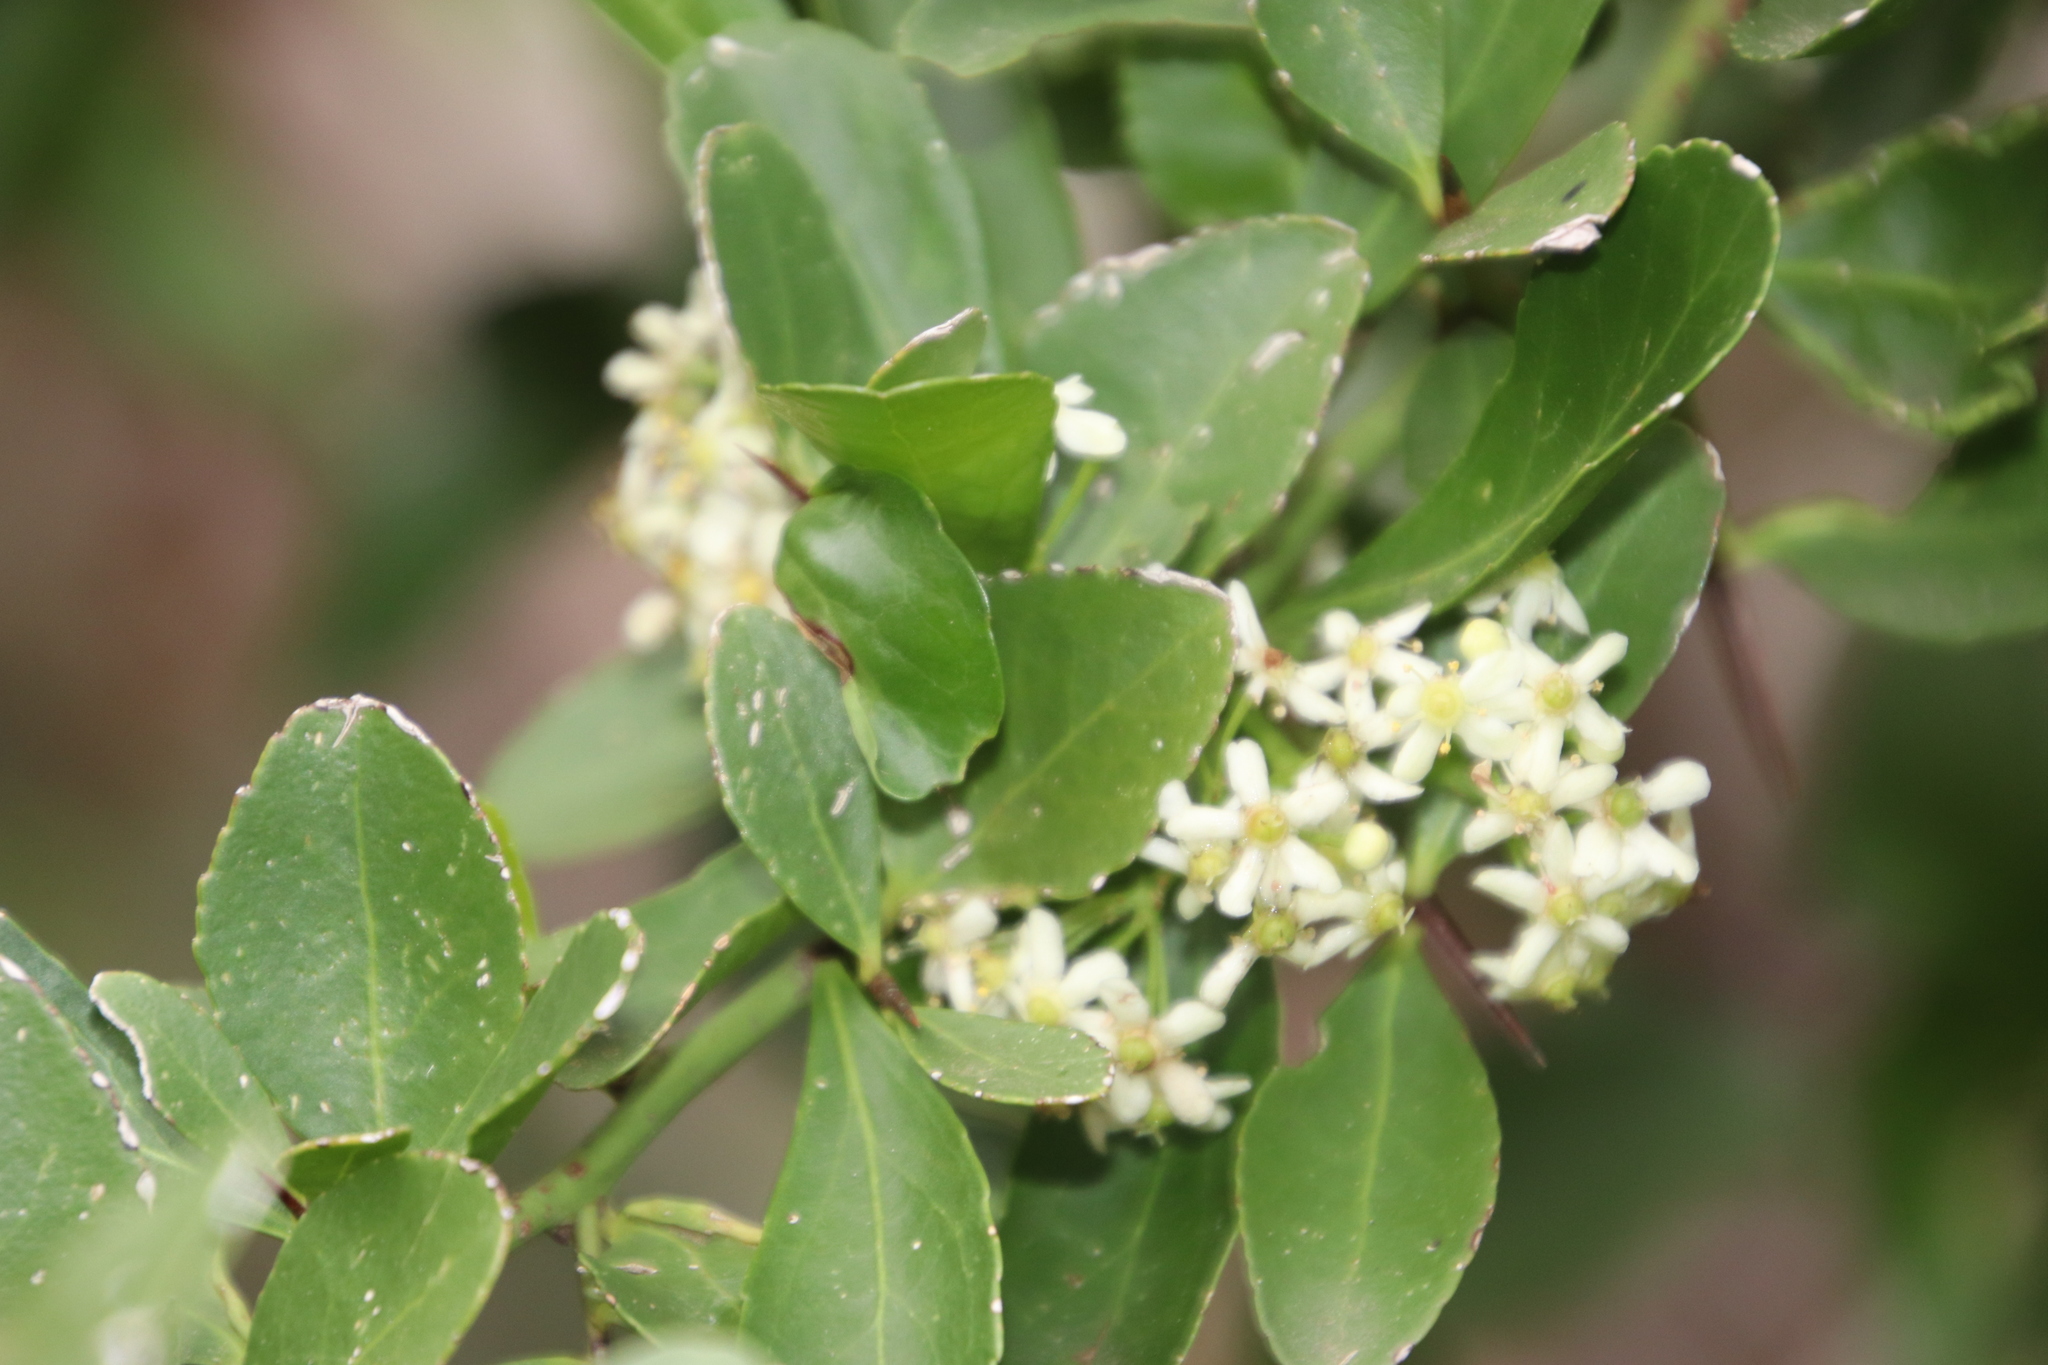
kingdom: Plantae
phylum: Tracheophyta
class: Magnoliopsida
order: Celastrales
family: Celastraceae
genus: Gymnosporia
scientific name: Gymnosporia buxifolia
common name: Common spike-thorn
